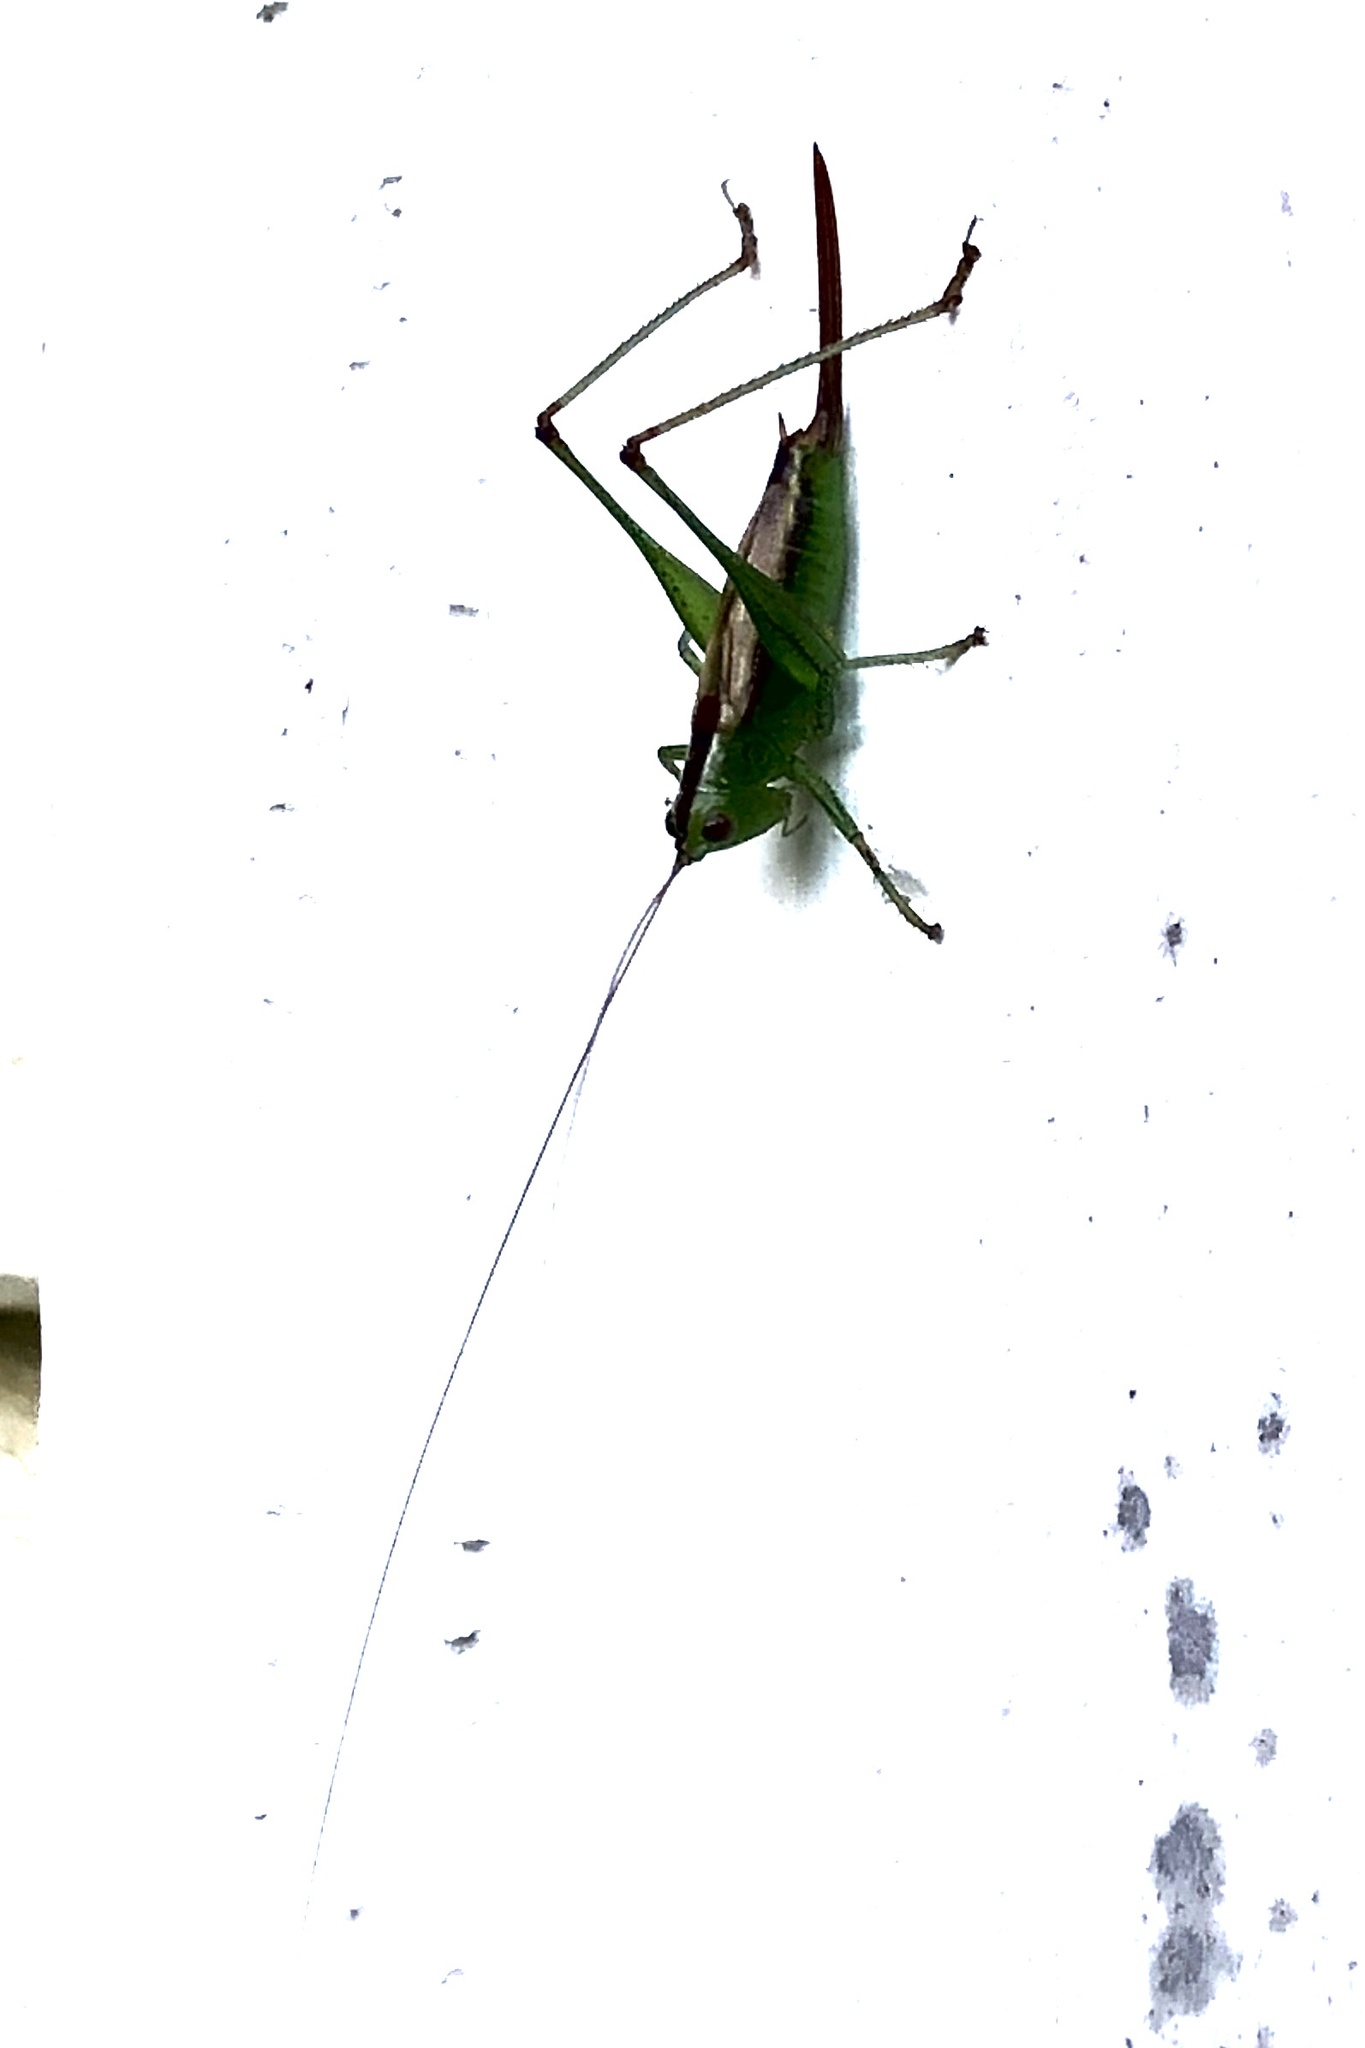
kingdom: Animalia
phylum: Arthropoda
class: Insecta
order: Orthoptera
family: Tettigoniidae
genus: Conocephalus
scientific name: Conocephalus brevipennis
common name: Short-winged meadow katydid
